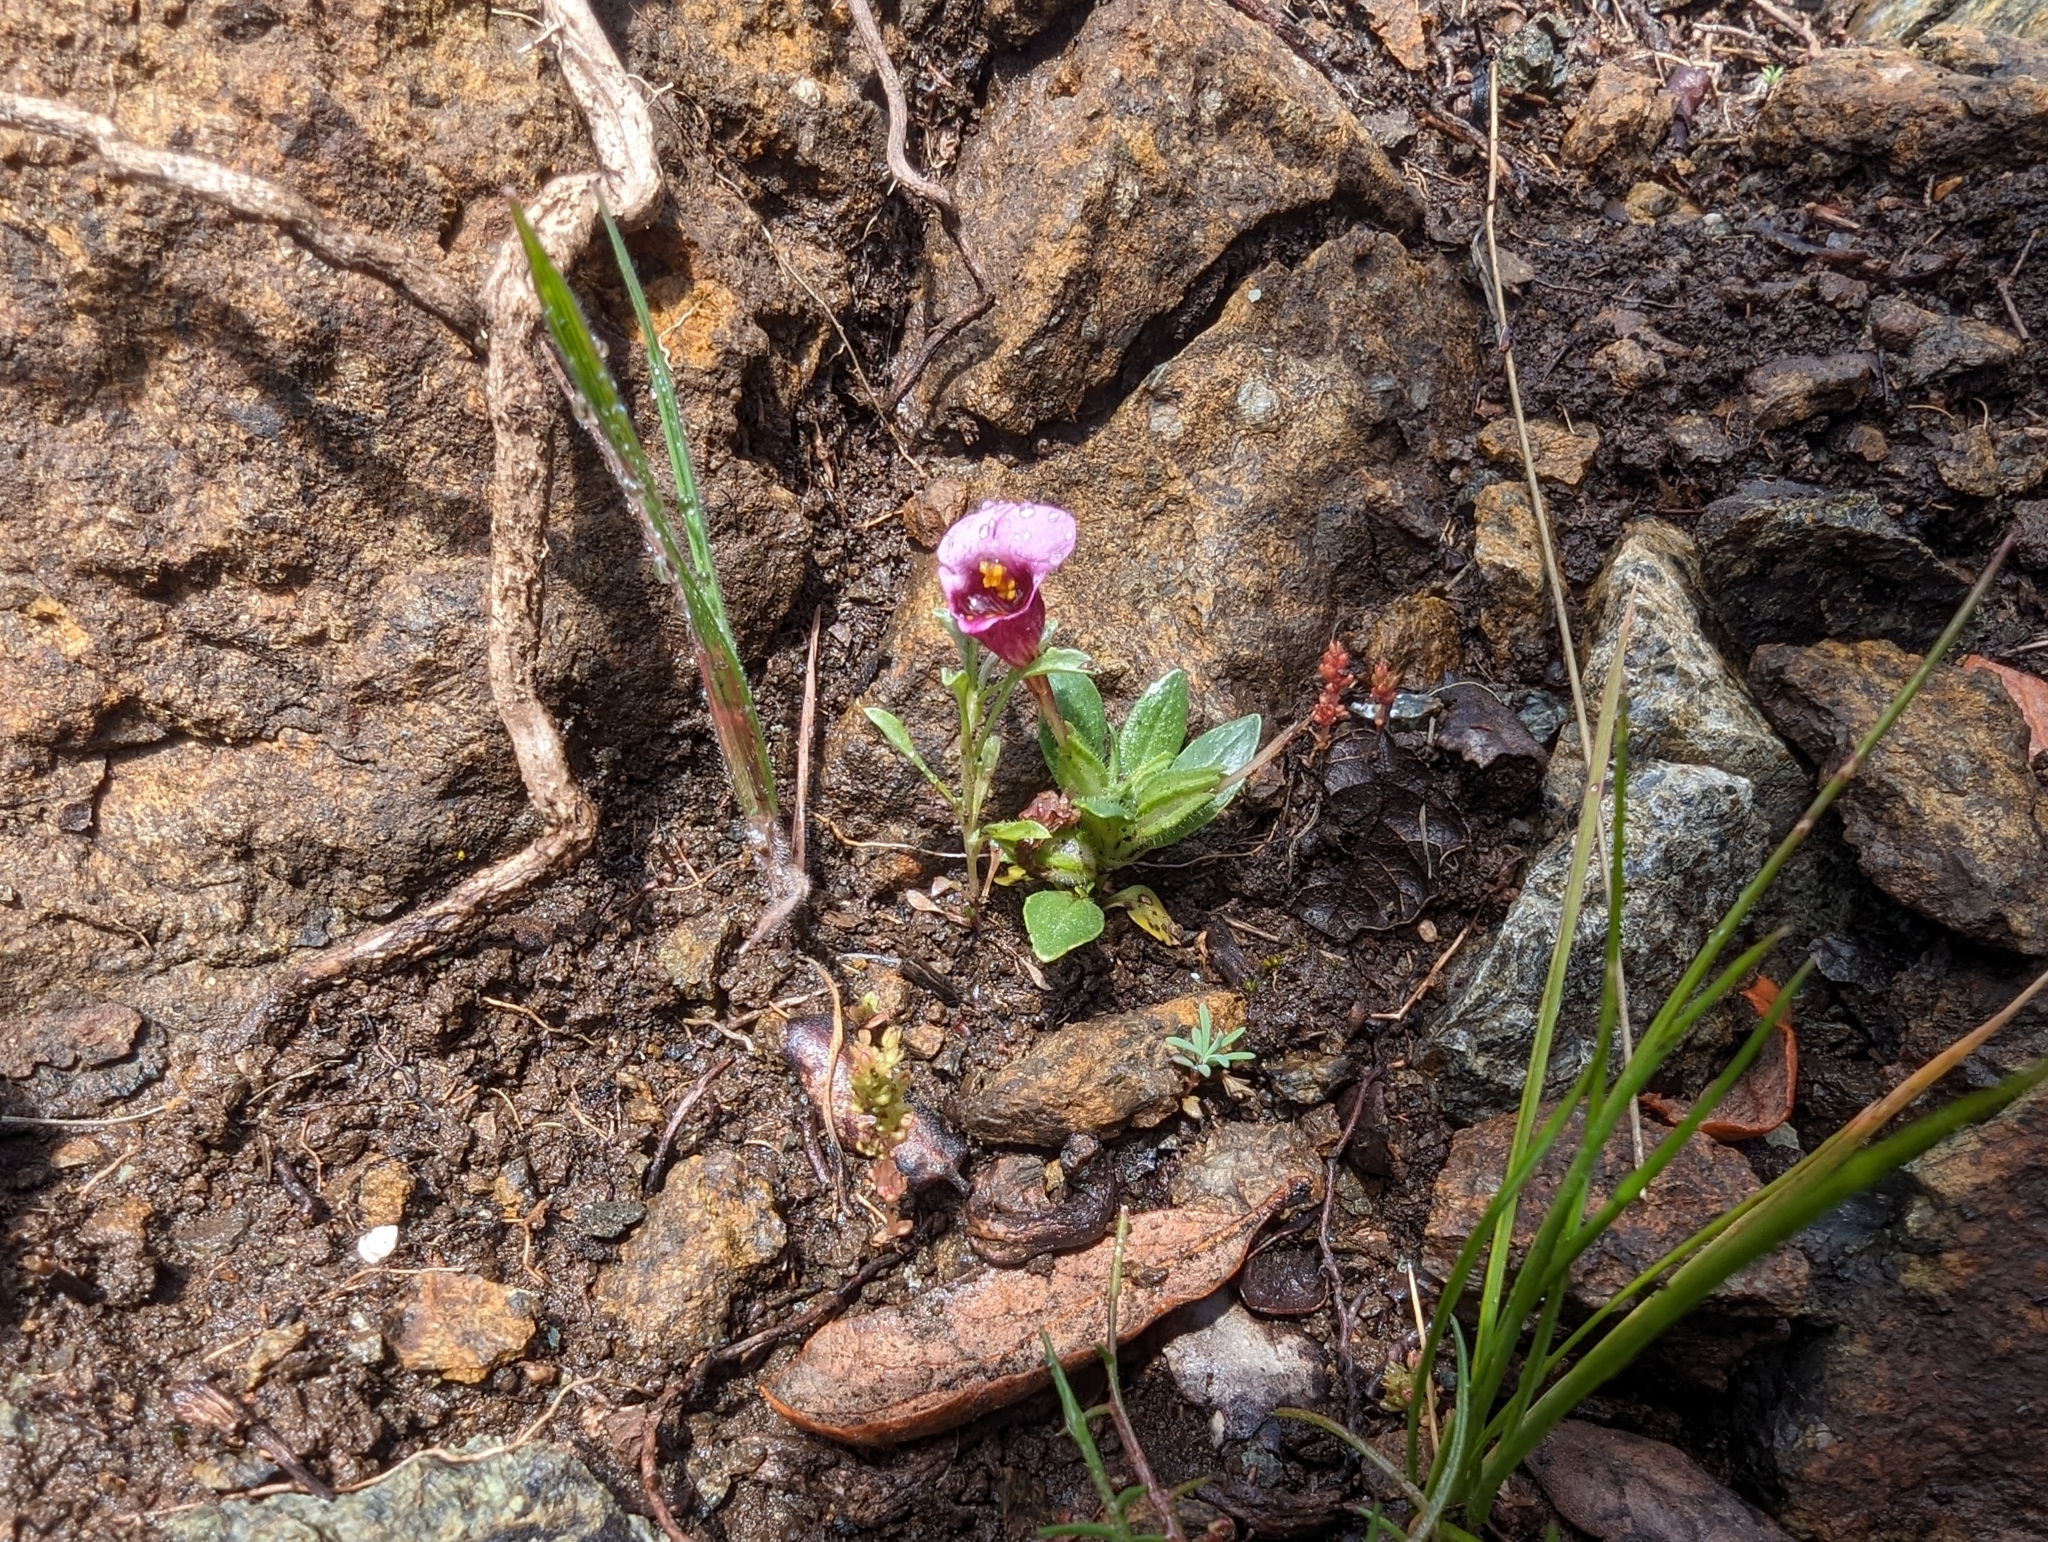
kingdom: Plantae
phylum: Tracheophyta
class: Magnoliopsida
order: Lamiales
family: Phrymaceae
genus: Diplacus
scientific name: Diplacus douglasii
